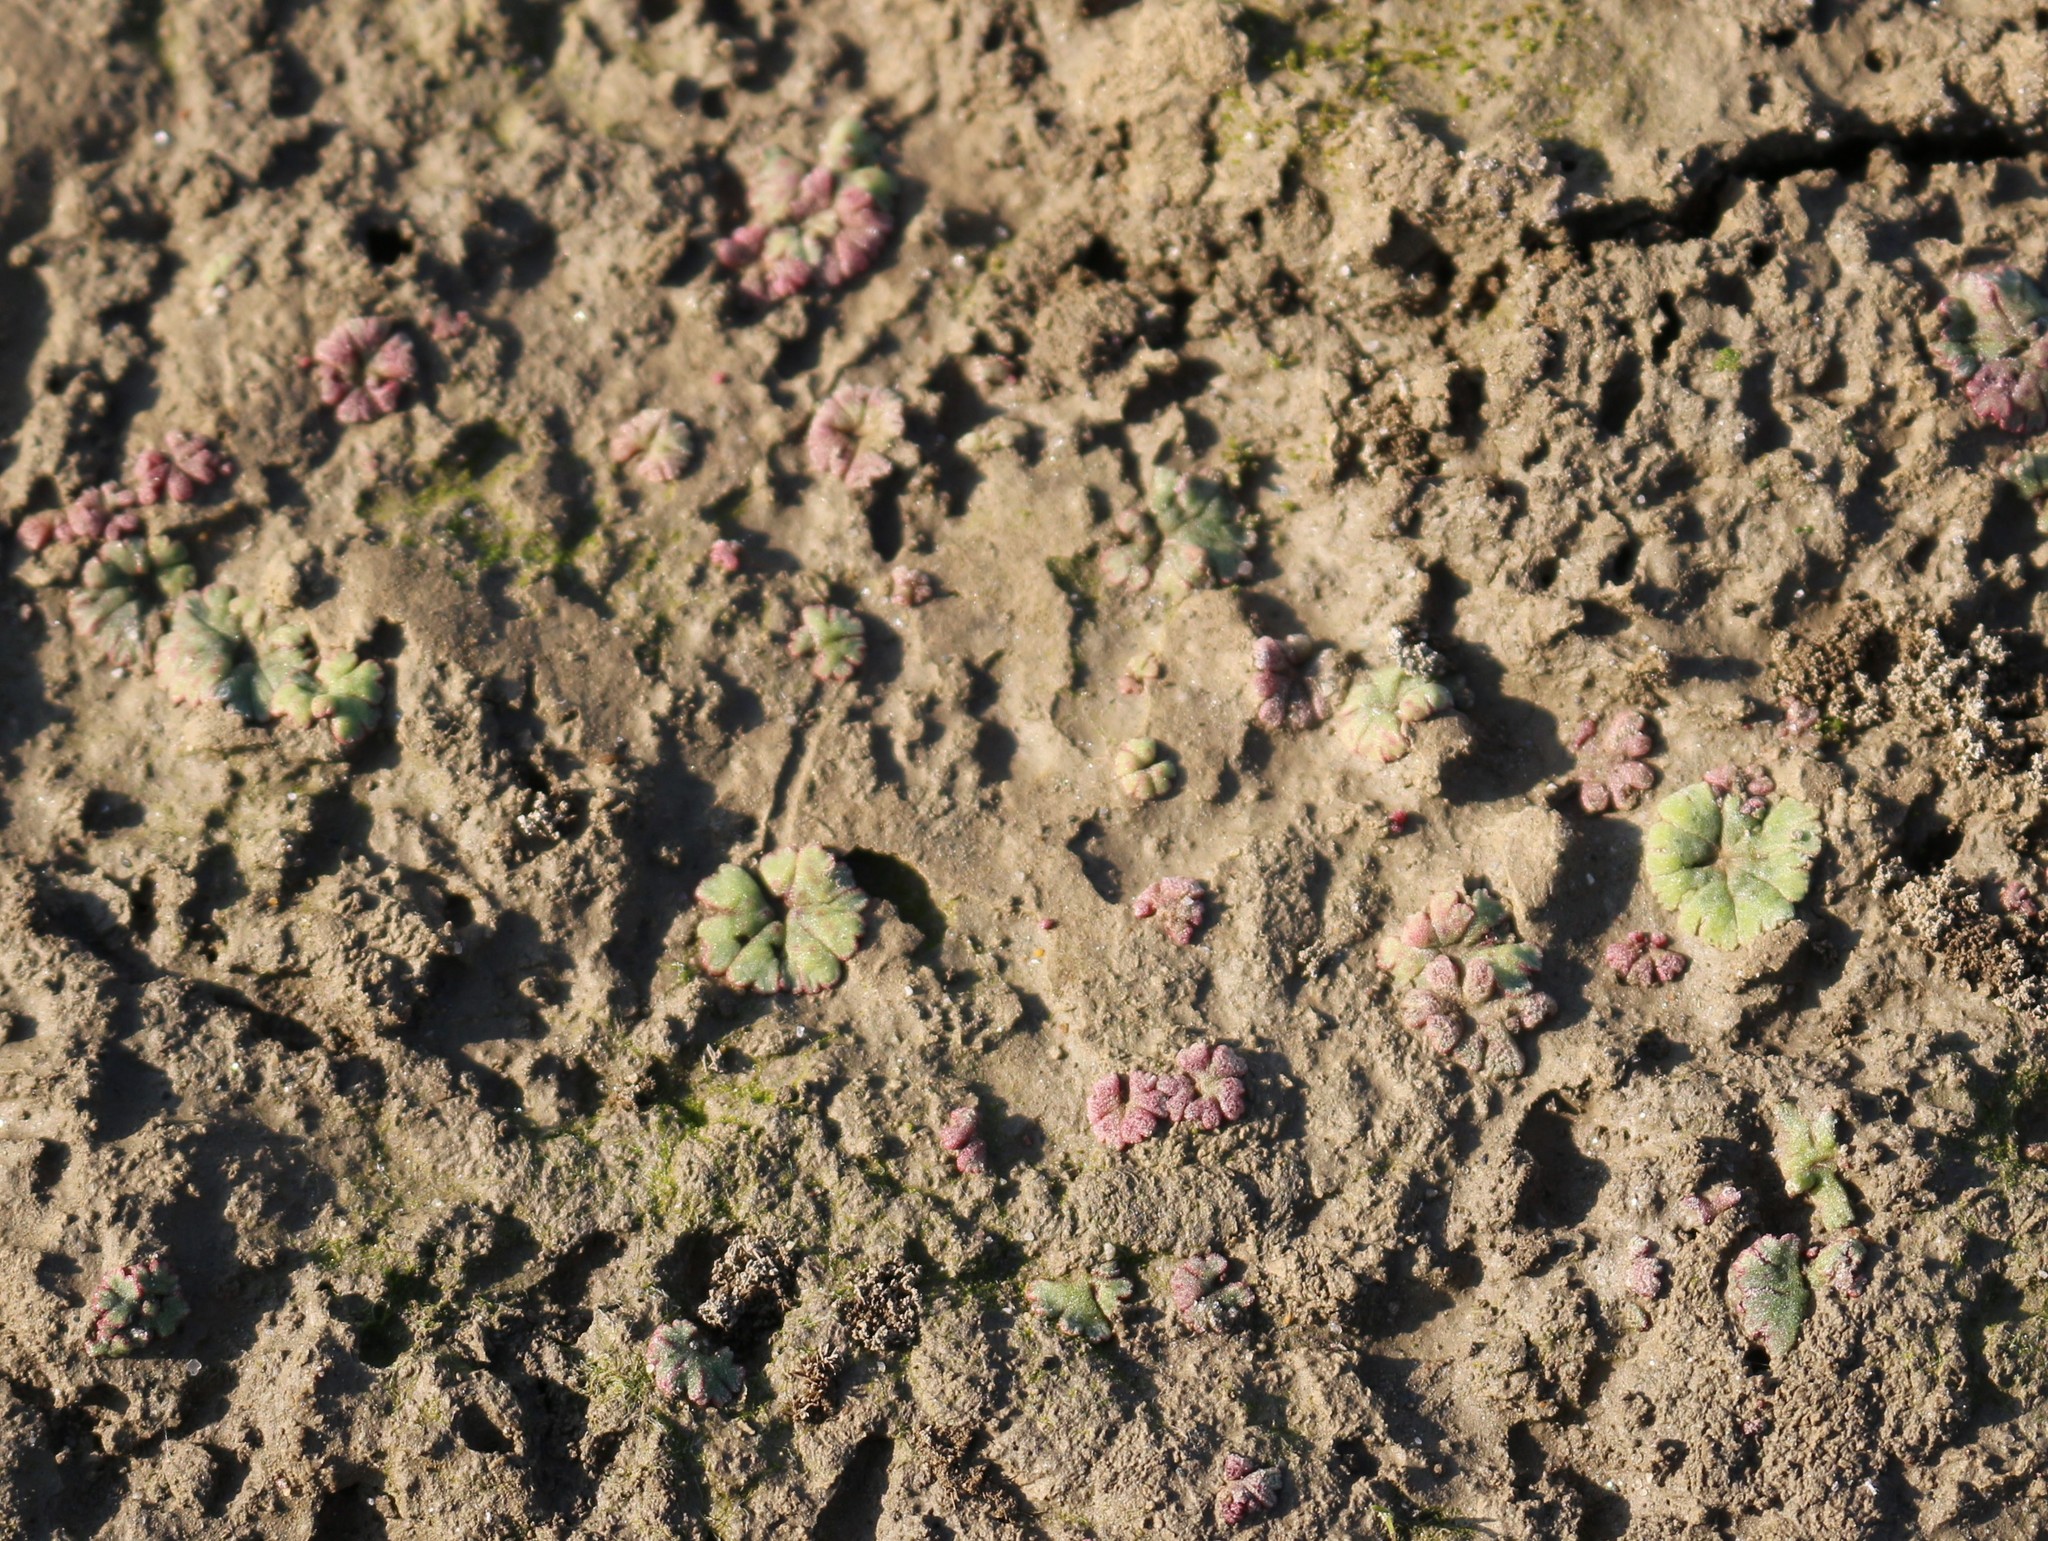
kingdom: Plantae
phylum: Marchantiophyta
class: Marchantiopsida
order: Marchantiales
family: Ricciaceae
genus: Riccia
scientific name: Riccia frostii
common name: Frost s crystalwort
